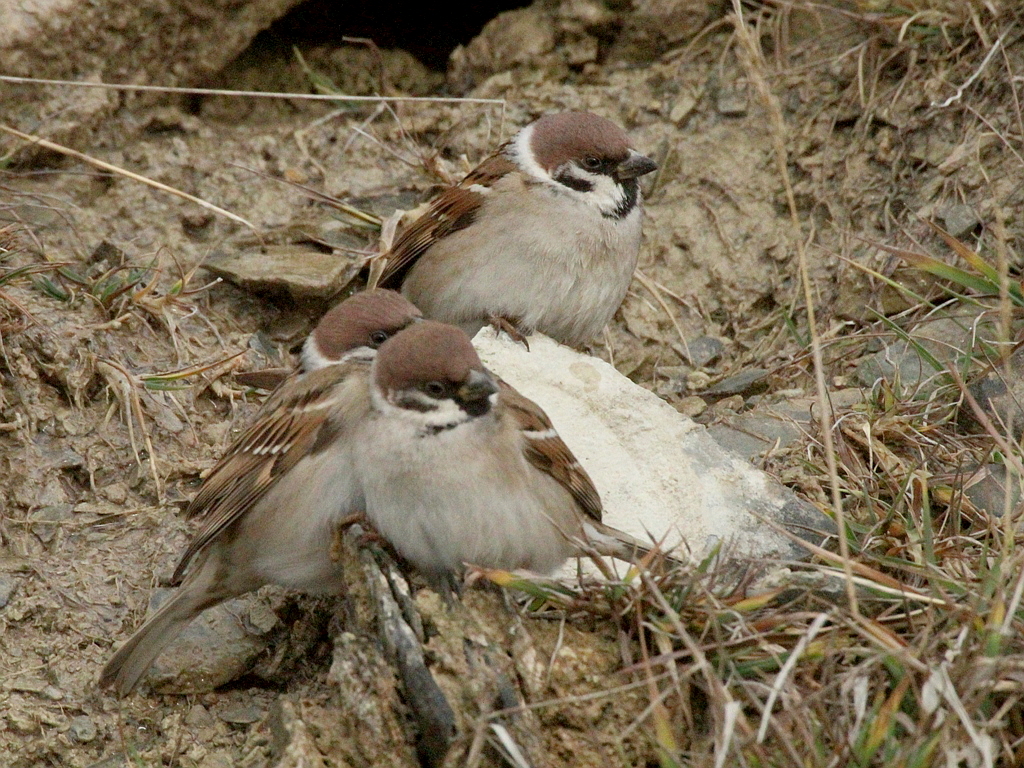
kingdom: Animalia
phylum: Chordata
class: Aves
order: Passeriformes
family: Passeridae
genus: Passer
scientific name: Passer montanus
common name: Eurasian tree sparrow
